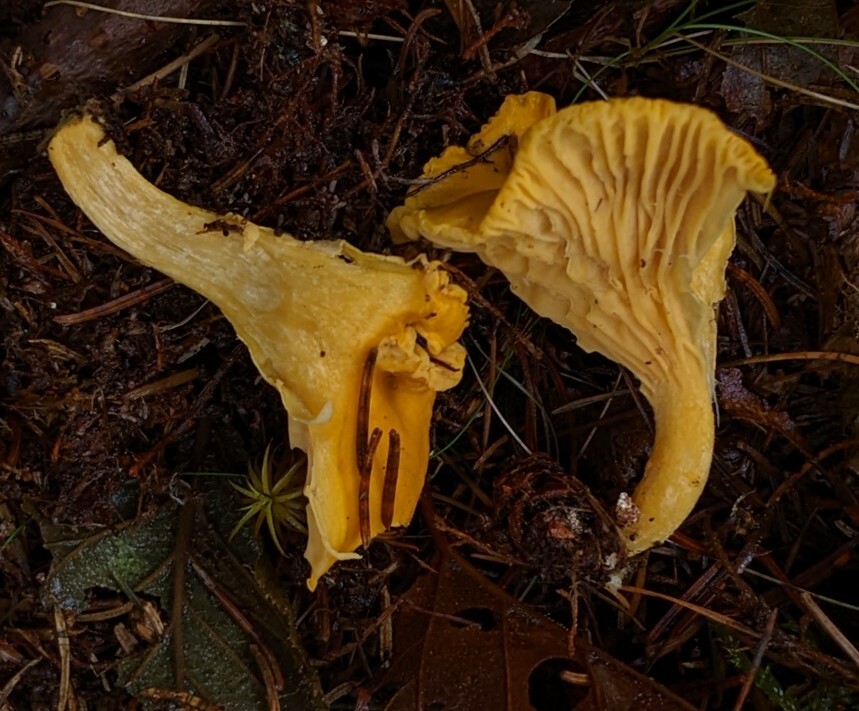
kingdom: Fungi
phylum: Basidiomycota
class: Agaricomycetes
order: Cantharellales
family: Hydnaceae
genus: Cantharellus
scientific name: Cantharellus enelensis
